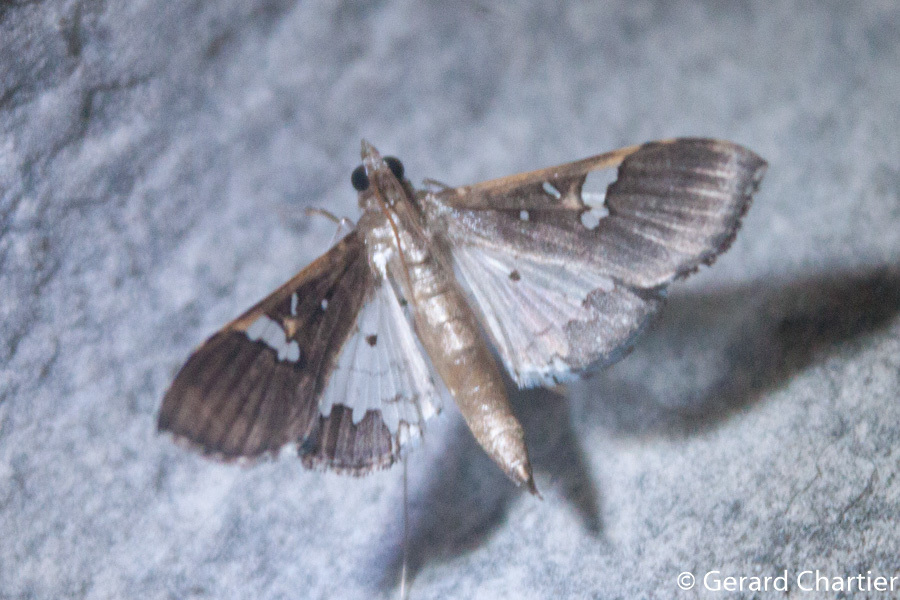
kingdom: Animalia
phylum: Arthropoda
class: Insecta
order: Lepidoptera
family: Crambidae
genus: Maruca
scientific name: Maruca vitrata
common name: Maruca pod borer
